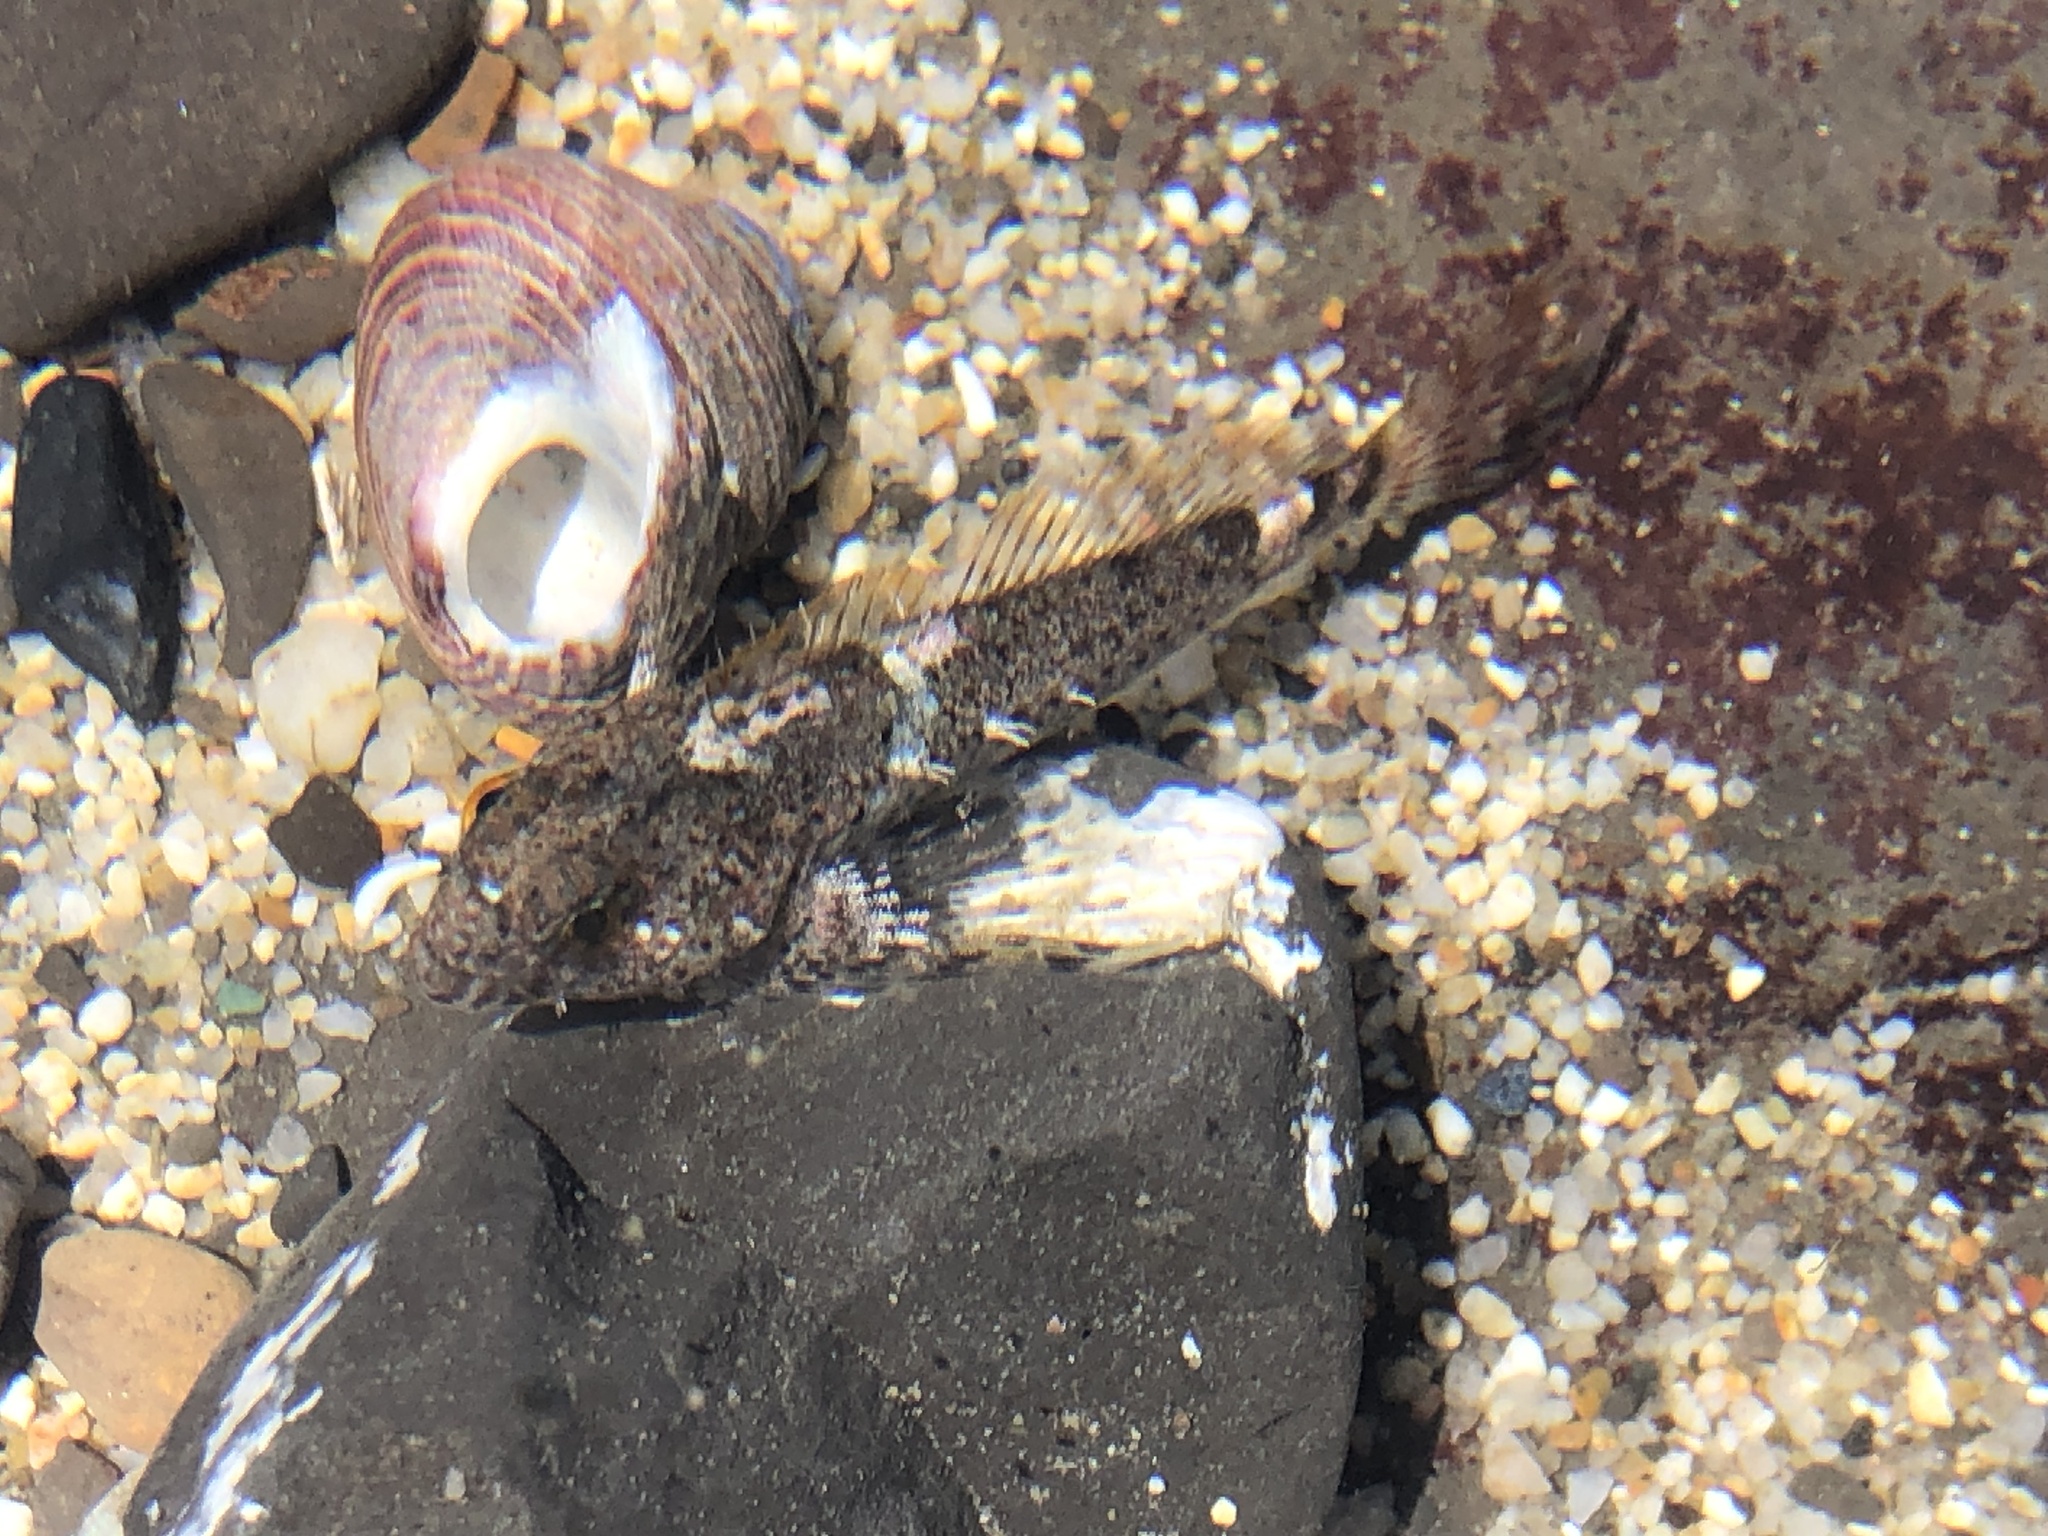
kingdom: Animalia
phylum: Chordata
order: Scorpaeniformes
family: Cottidae
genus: Clinocottus
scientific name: Clinocottus analis
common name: Woolly sculpin
